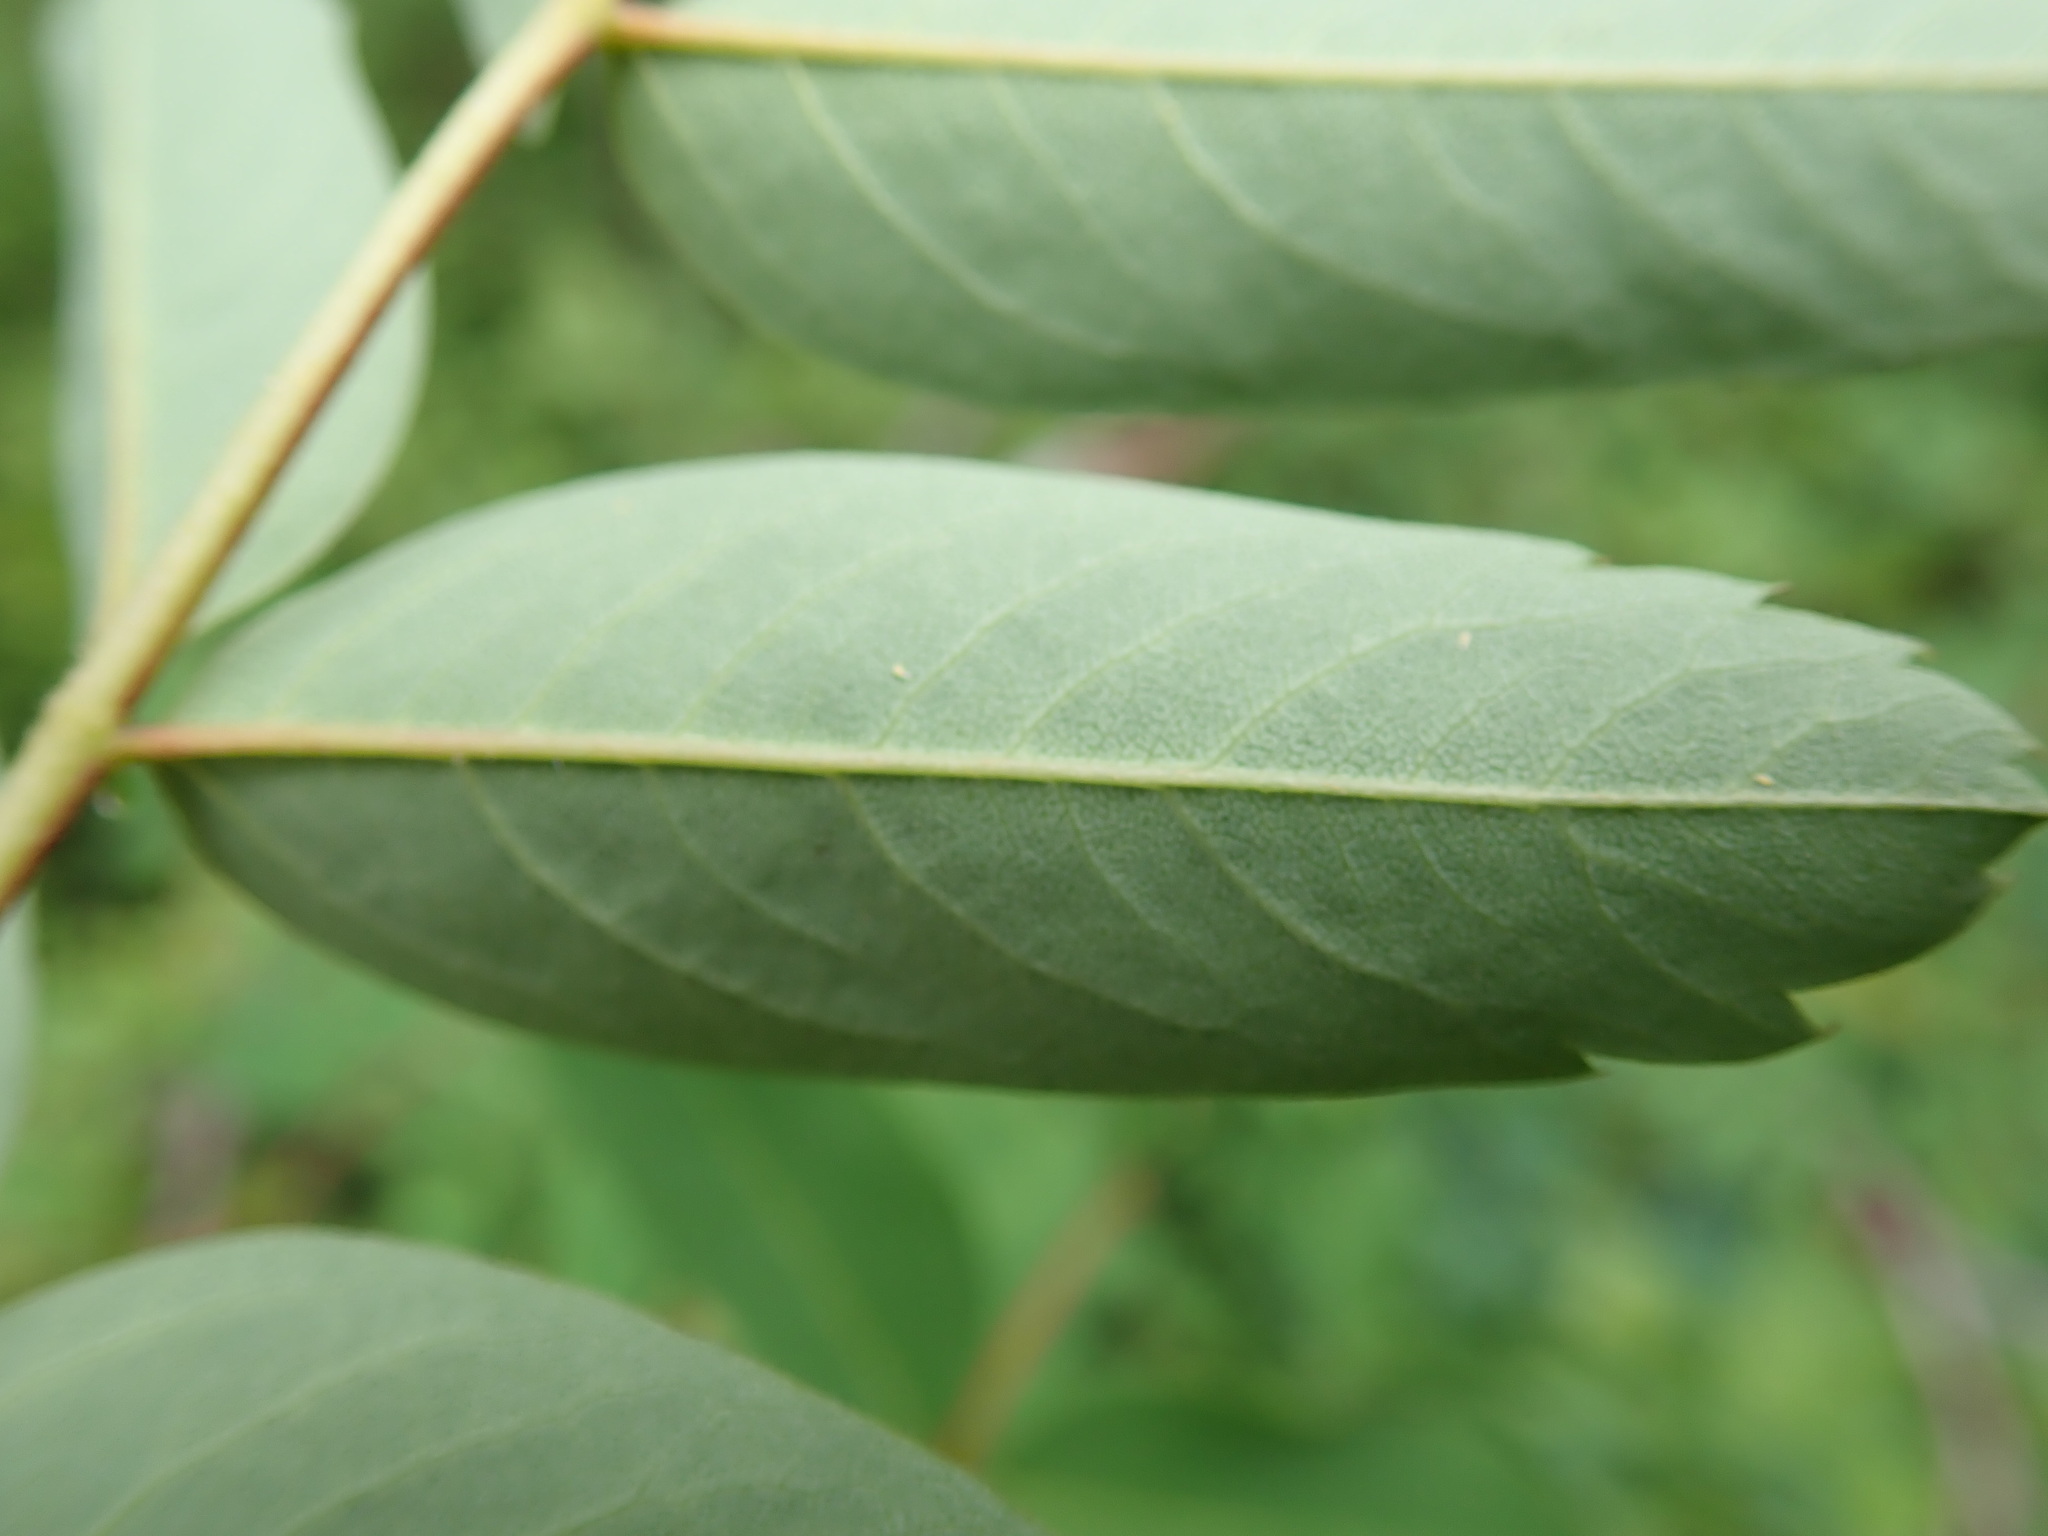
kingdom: Plantae
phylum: Tracheophyta
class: Magnoliopsida
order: Rosales
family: Rosaceae
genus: Sorbus
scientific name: Sorbus sitchensis
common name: Sitka mountain-ash
